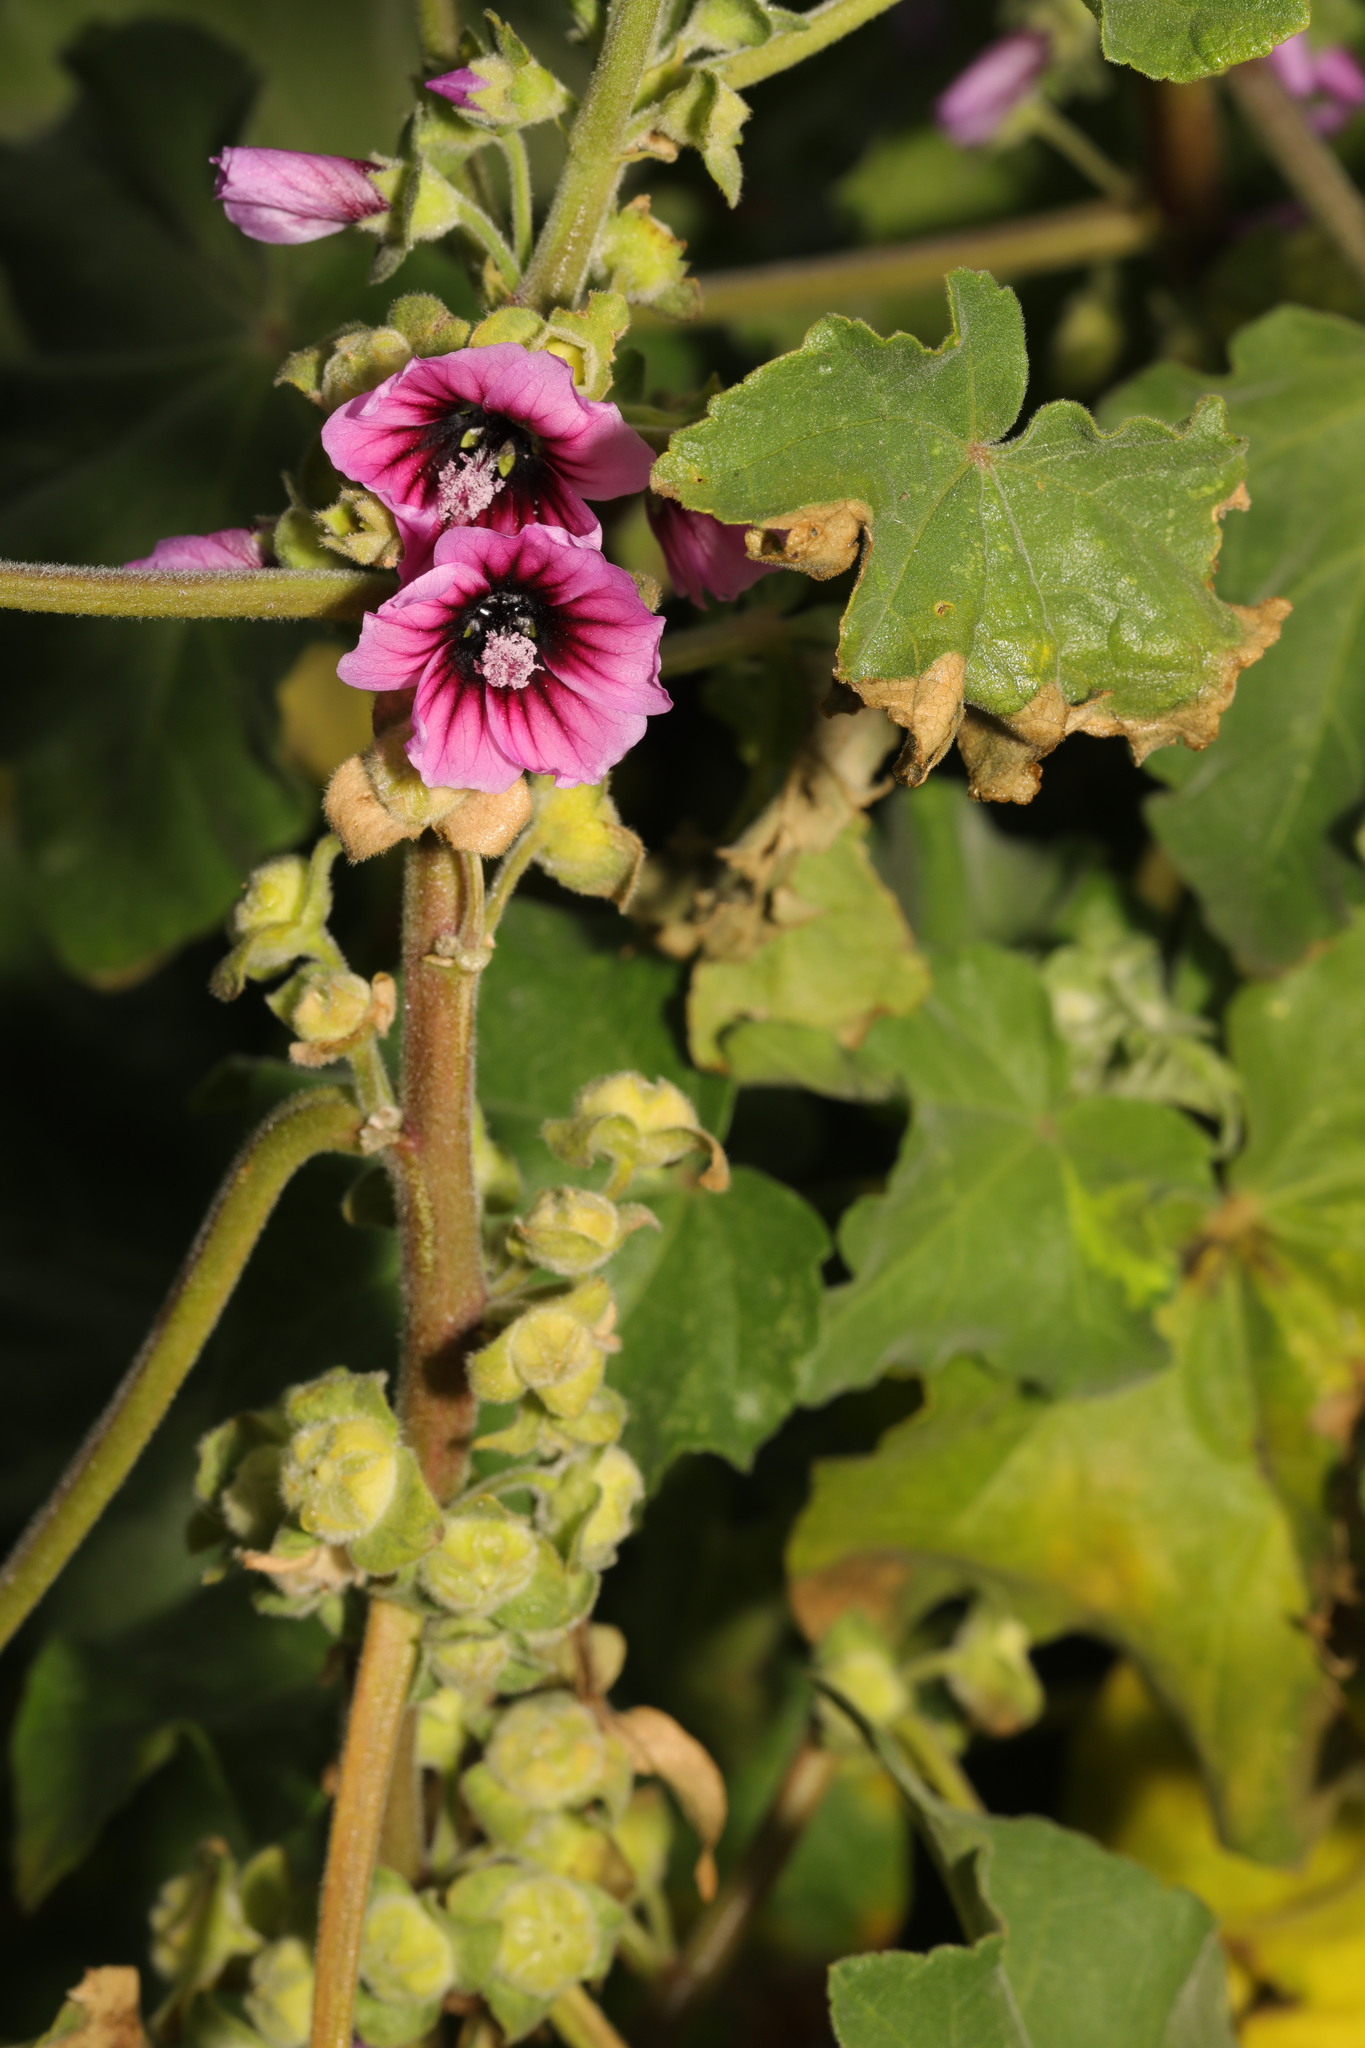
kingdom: Plantae
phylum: Tracheophyta
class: Magnoliopsida
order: Malvales
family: Malvaceae
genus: Malva
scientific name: Malva arborea
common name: Tree mallow
